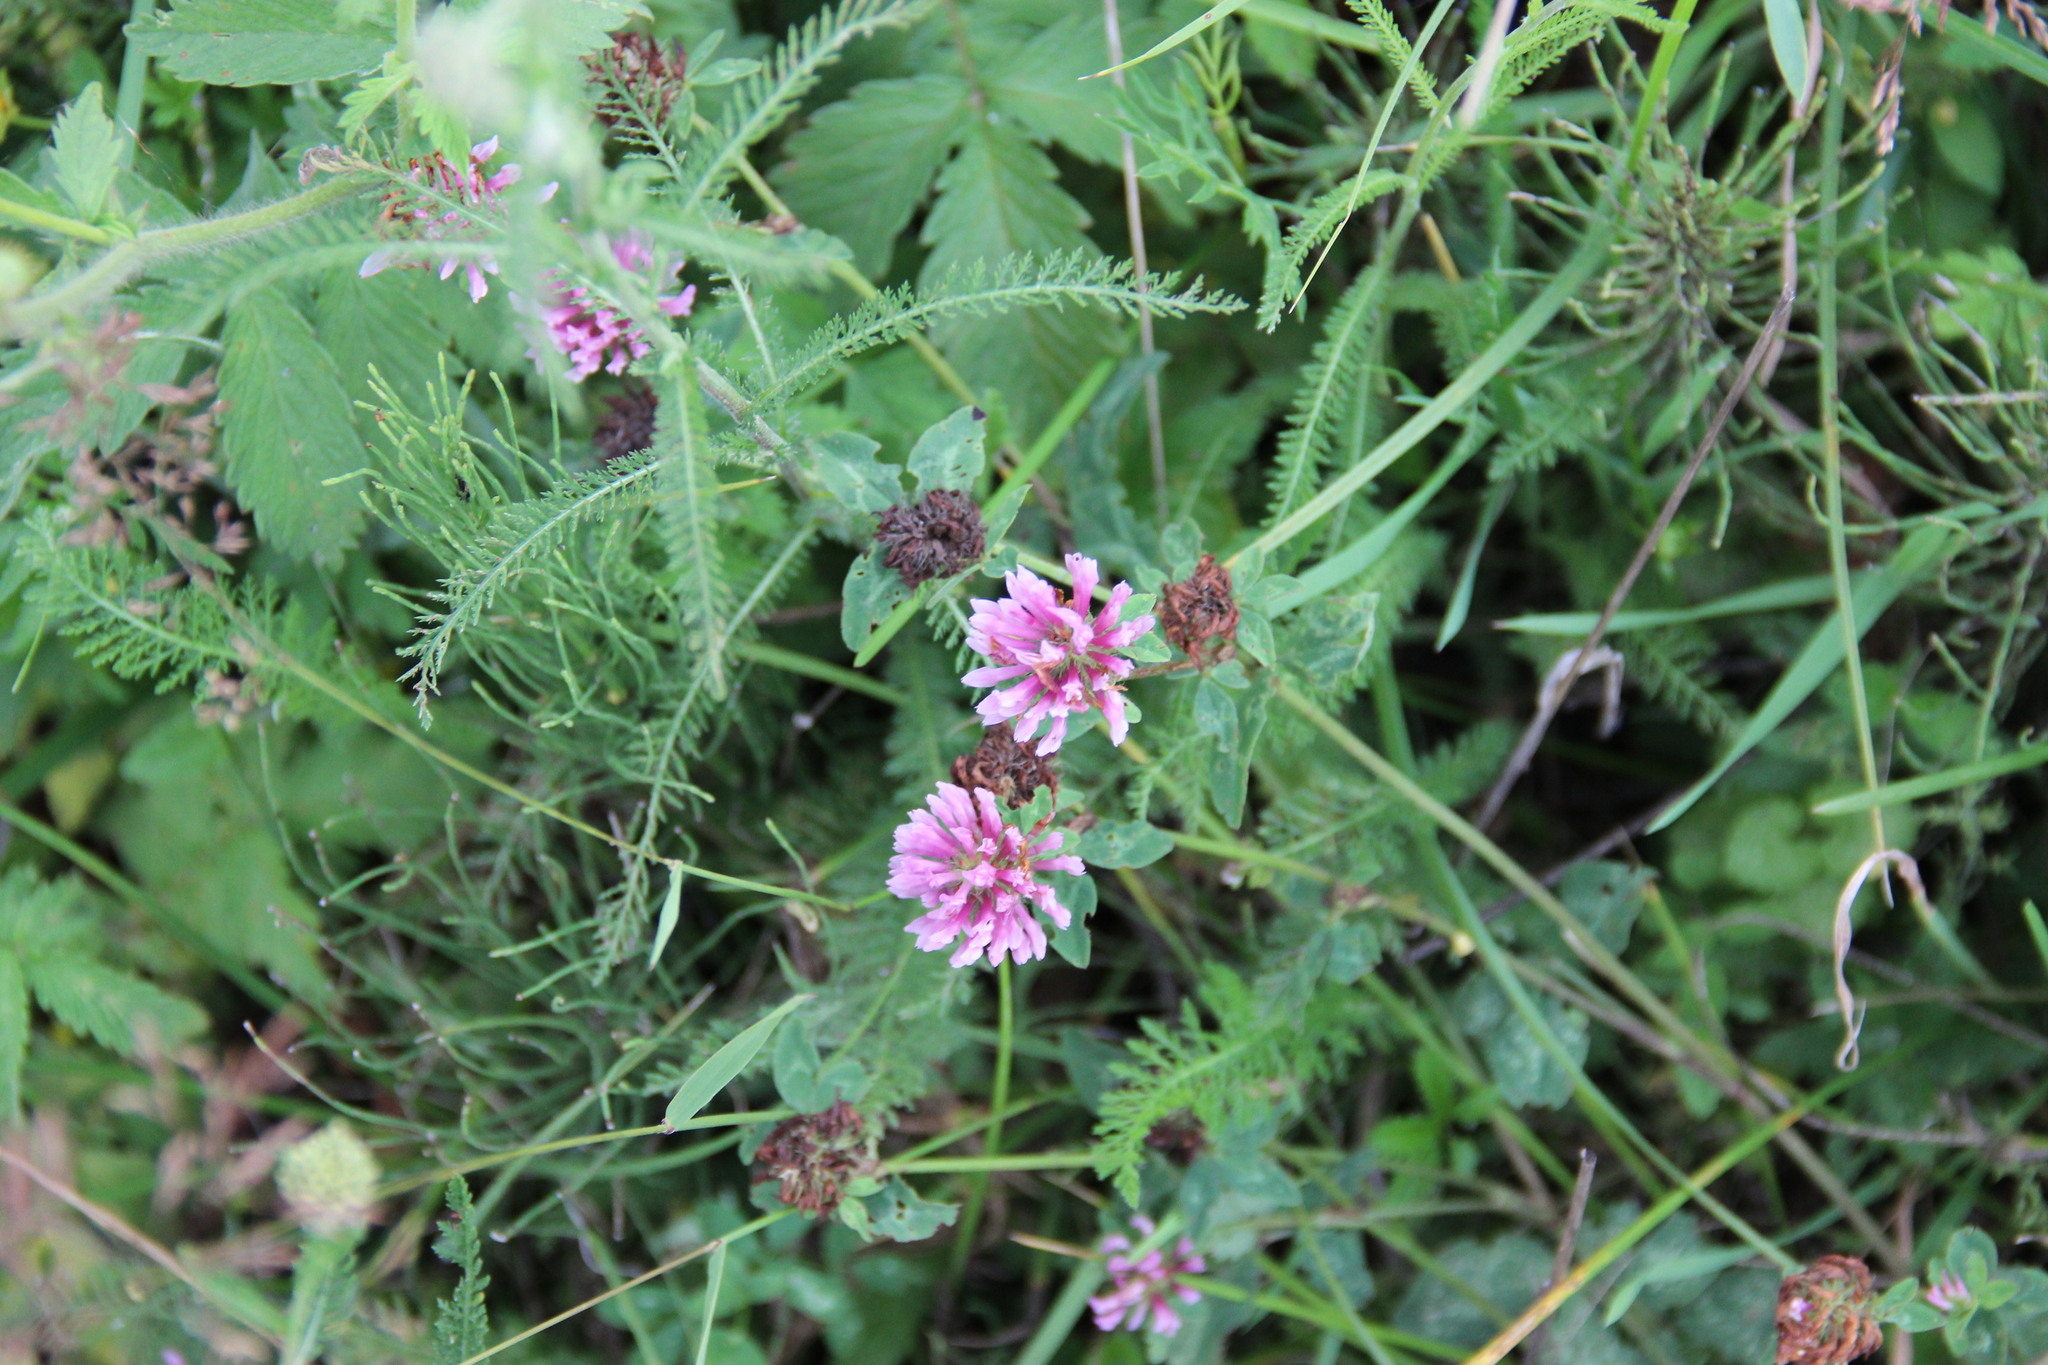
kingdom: Plantae
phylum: Tracheophyta
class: Magnoliopsida
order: Fabales
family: Fabaceae
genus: Trifolium
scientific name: Trifolium pratense
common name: Red clover
